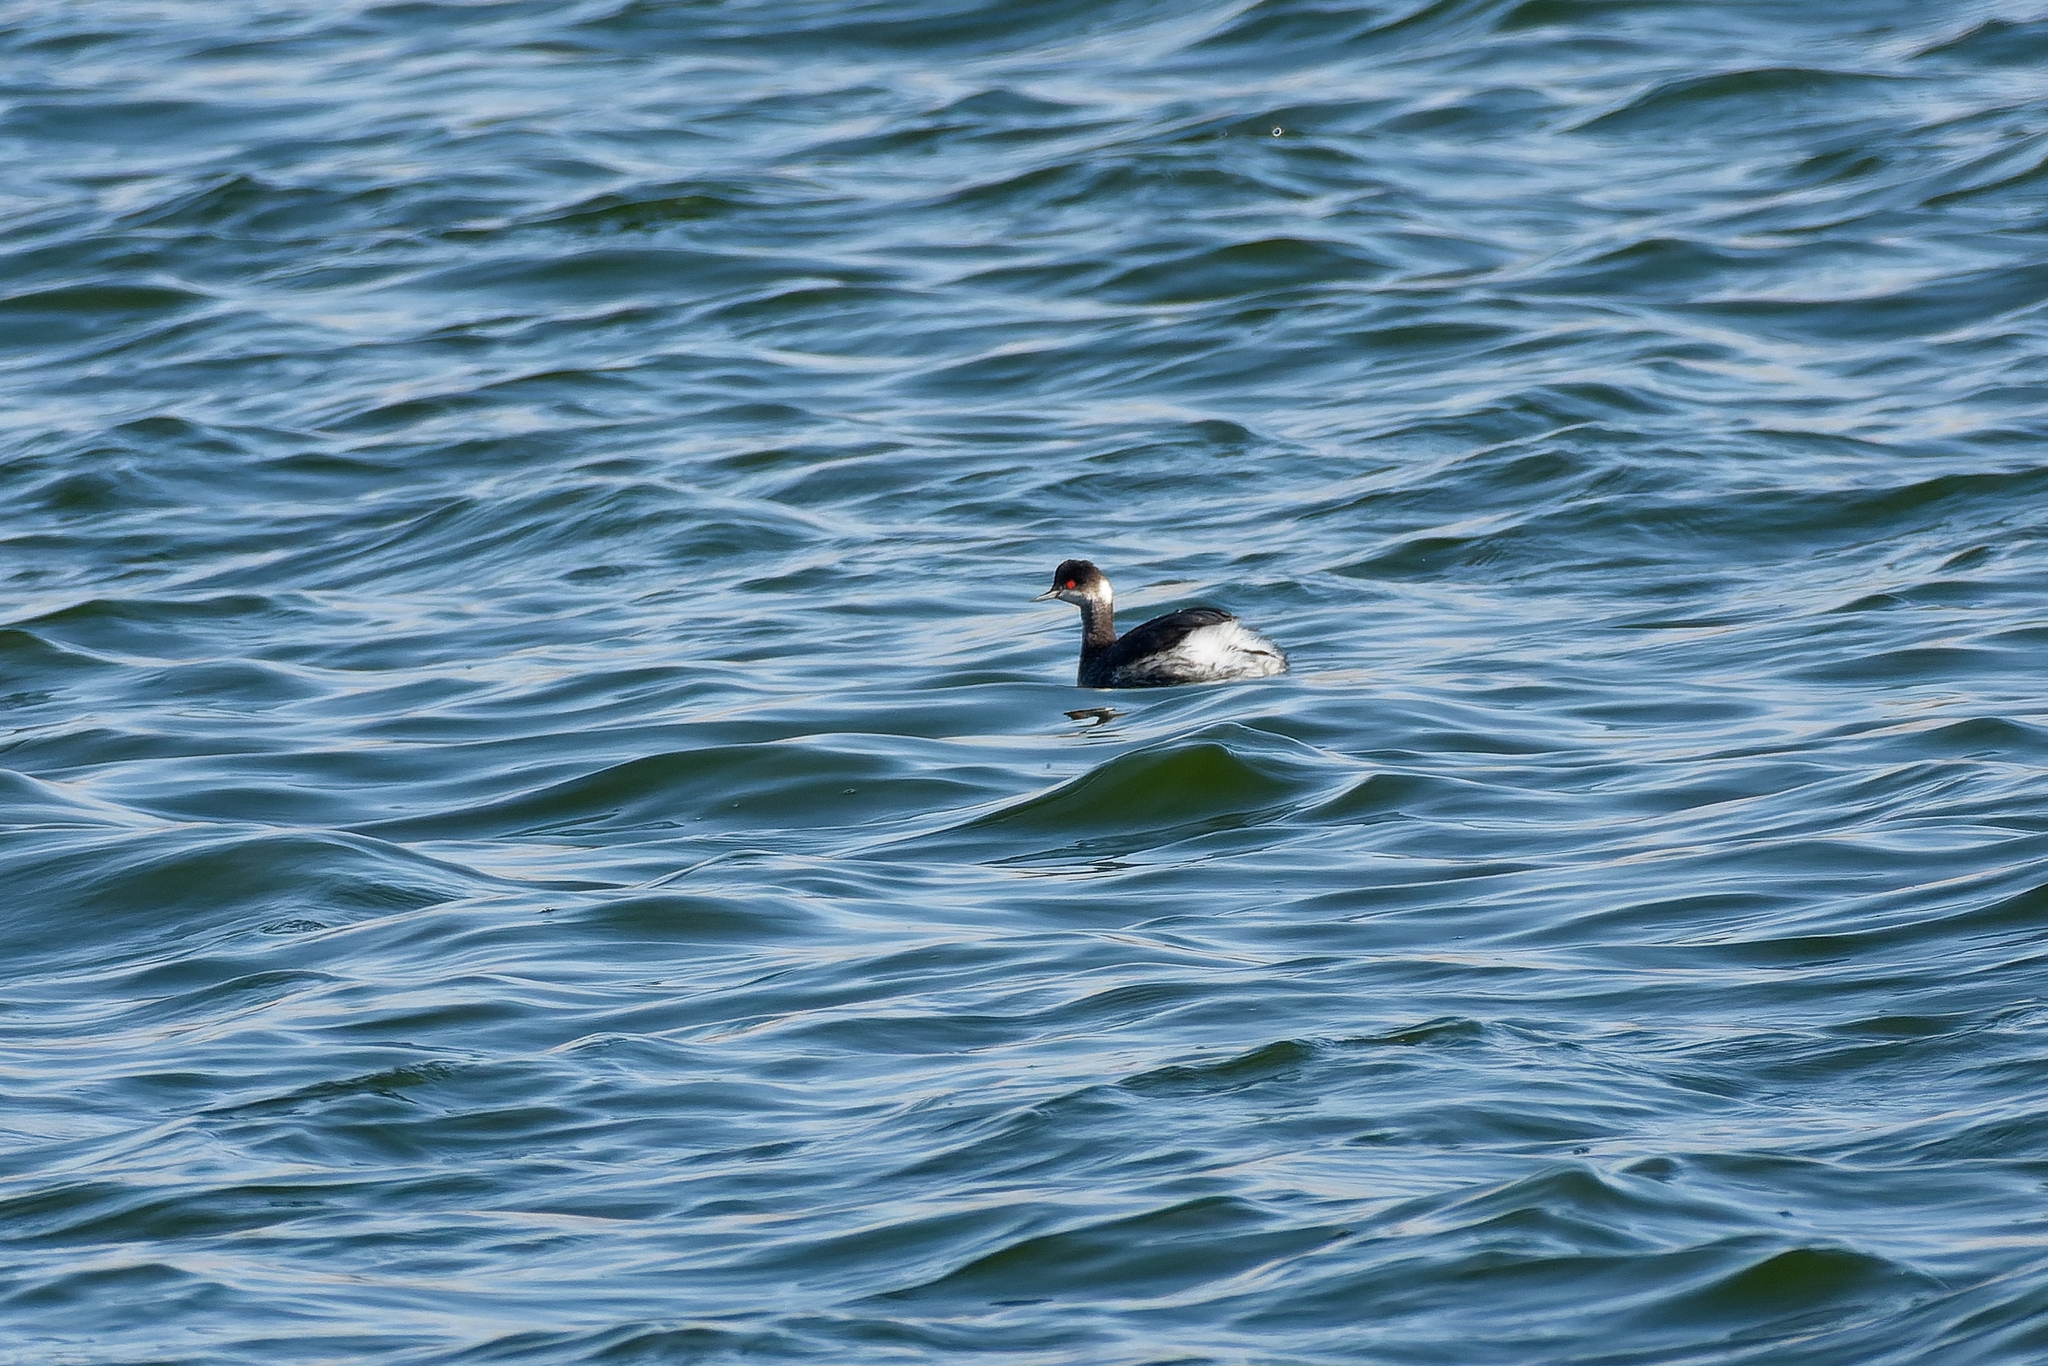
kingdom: Animalia
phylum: Chordata
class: Aves
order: Podicipediformes
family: Podicipedidae
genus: Podiceps
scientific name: Podiceps nigricollis
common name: Black-necked grebe
